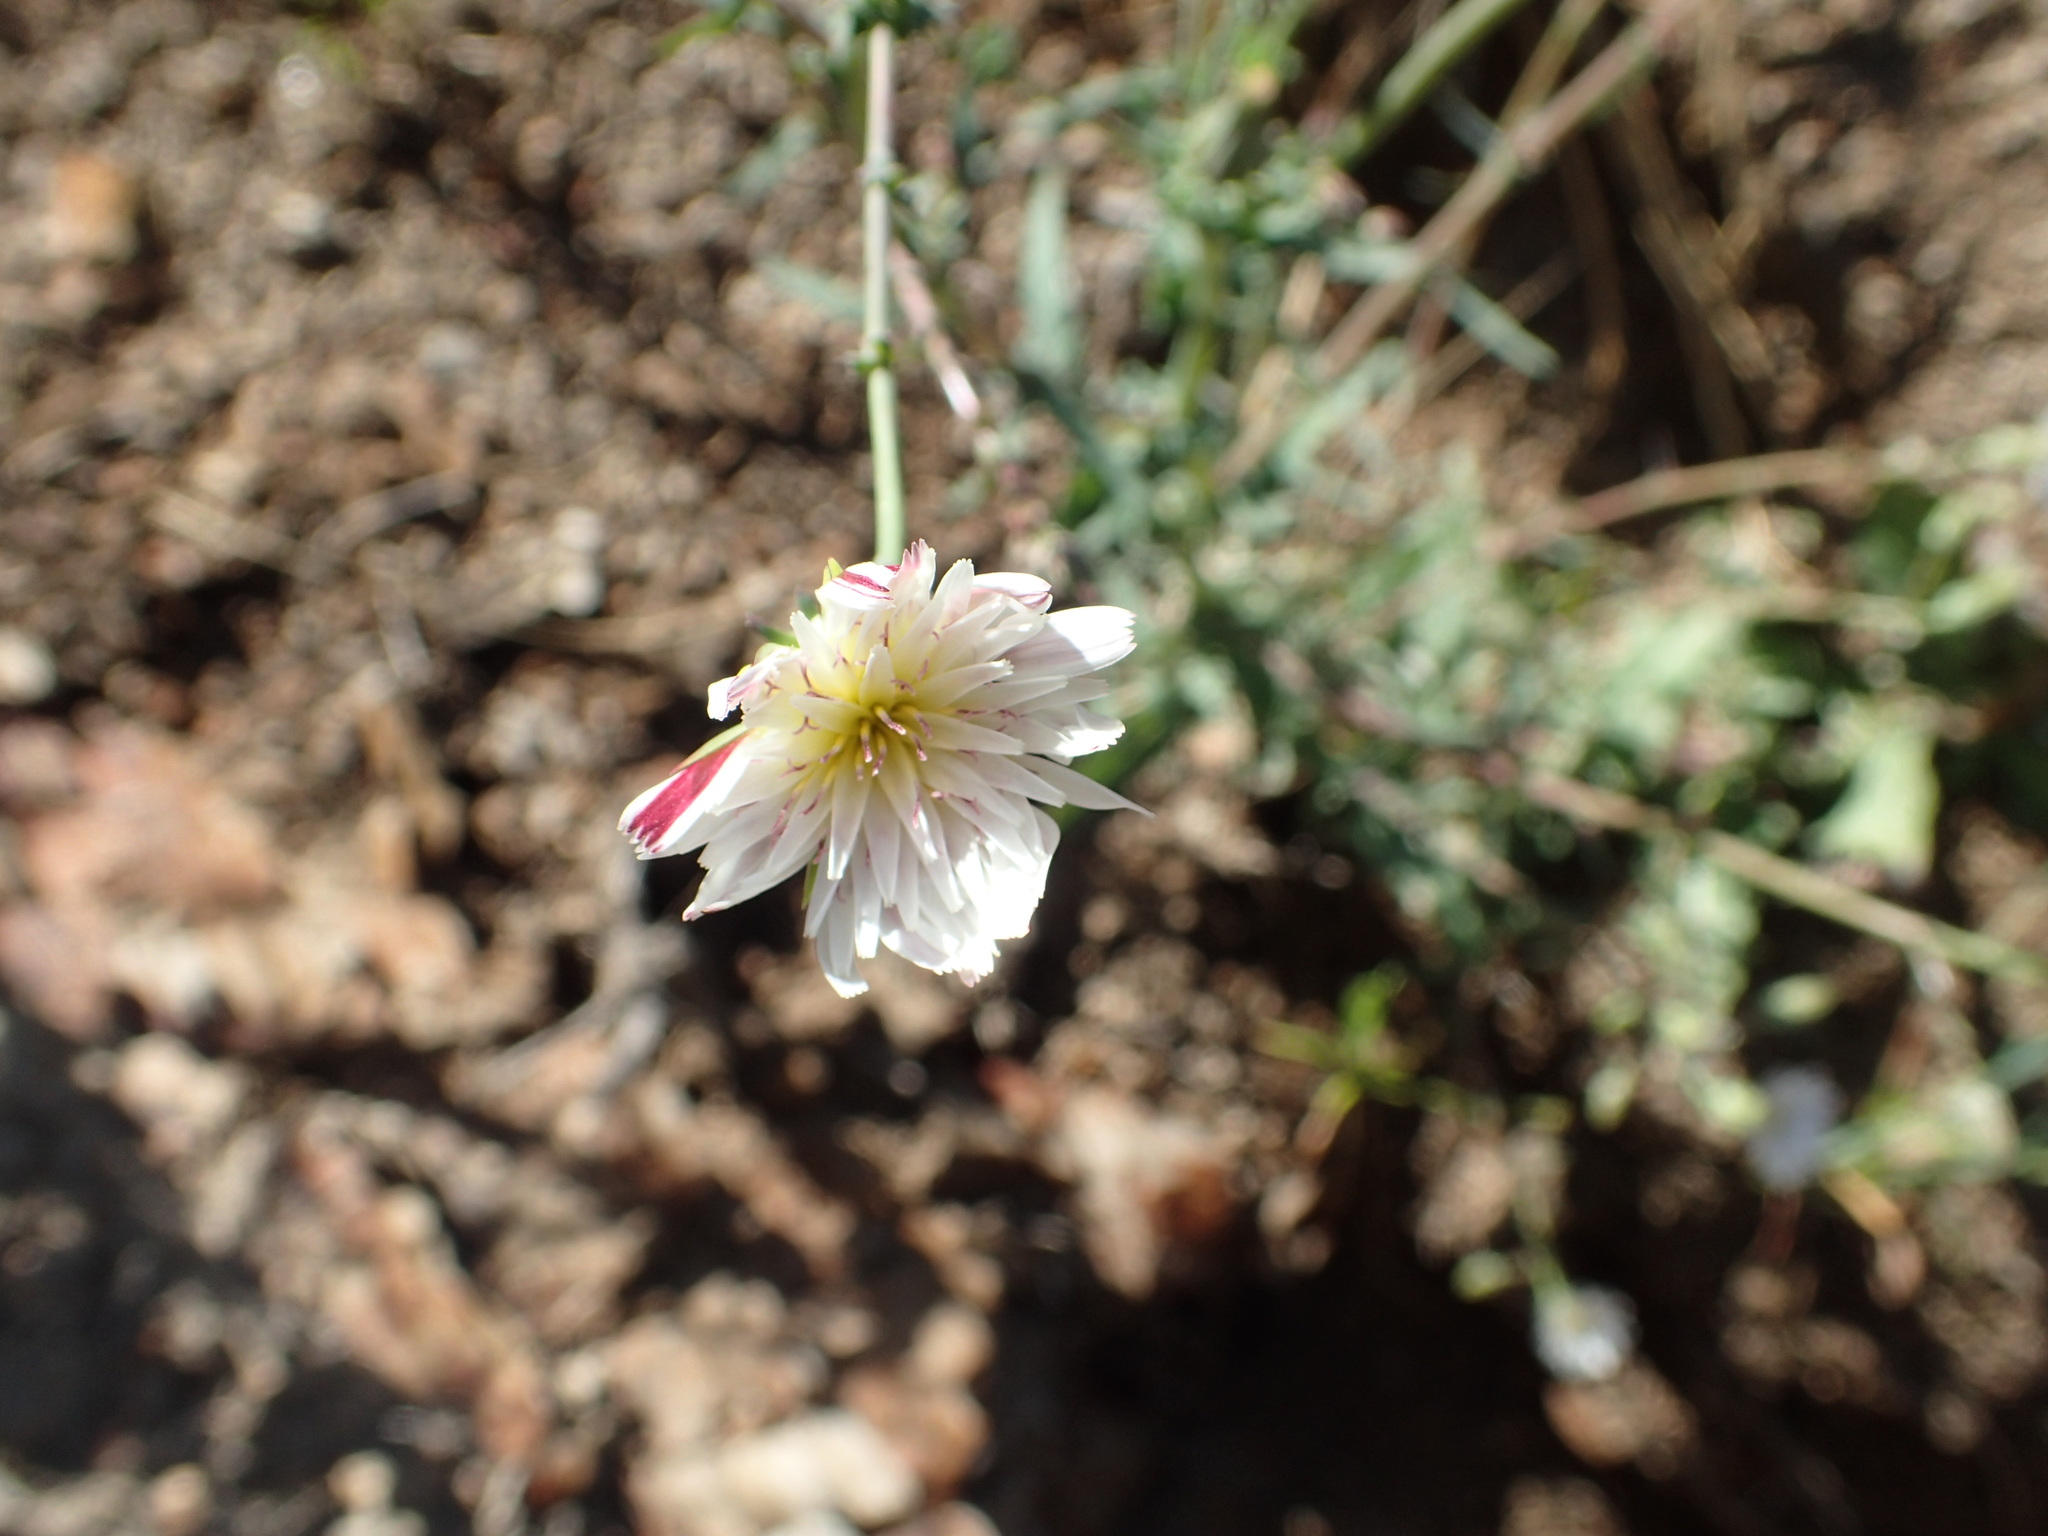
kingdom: Plantae
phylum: Tracheophyta
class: Magnoliopsida
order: Asterales
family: Asteraceae
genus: Rafinesquia
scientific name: Rafinesquia californica
